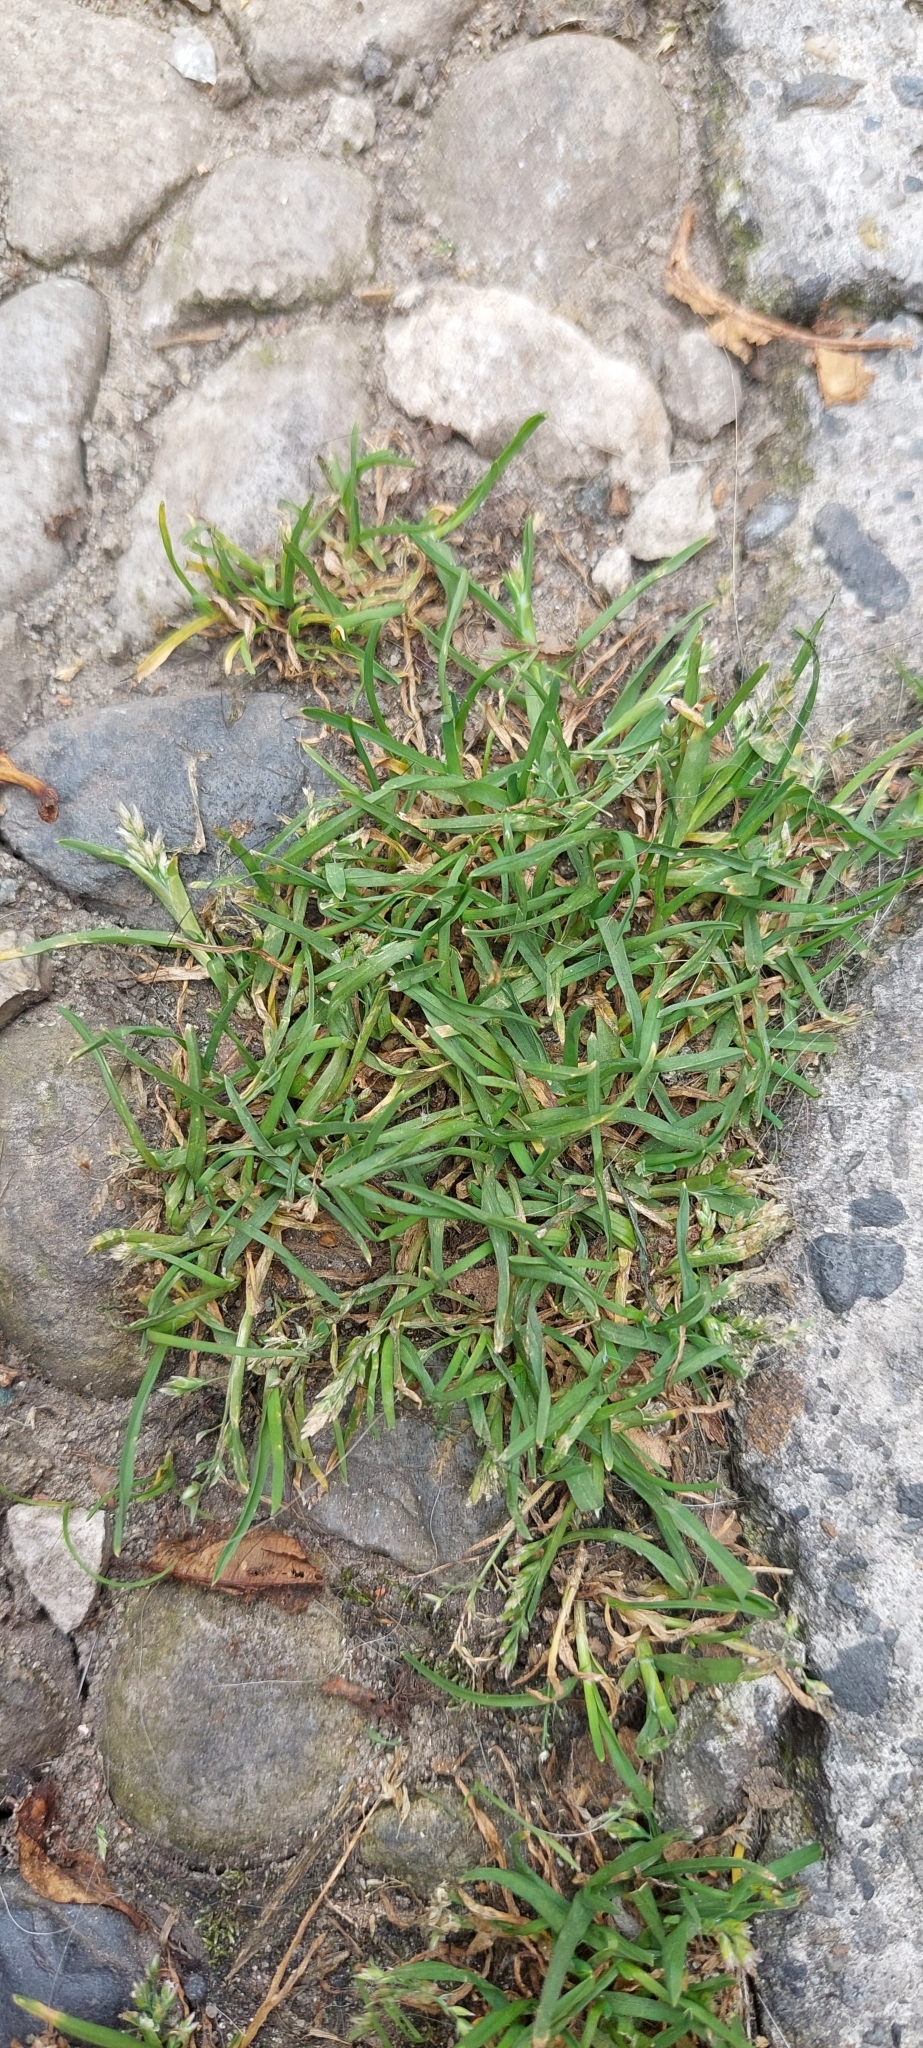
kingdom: Plantae
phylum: Tracheophyta
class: Liliopsida
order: Poales
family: Poaceae
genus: Poa
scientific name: Poa annua
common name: Annual bluegrass
